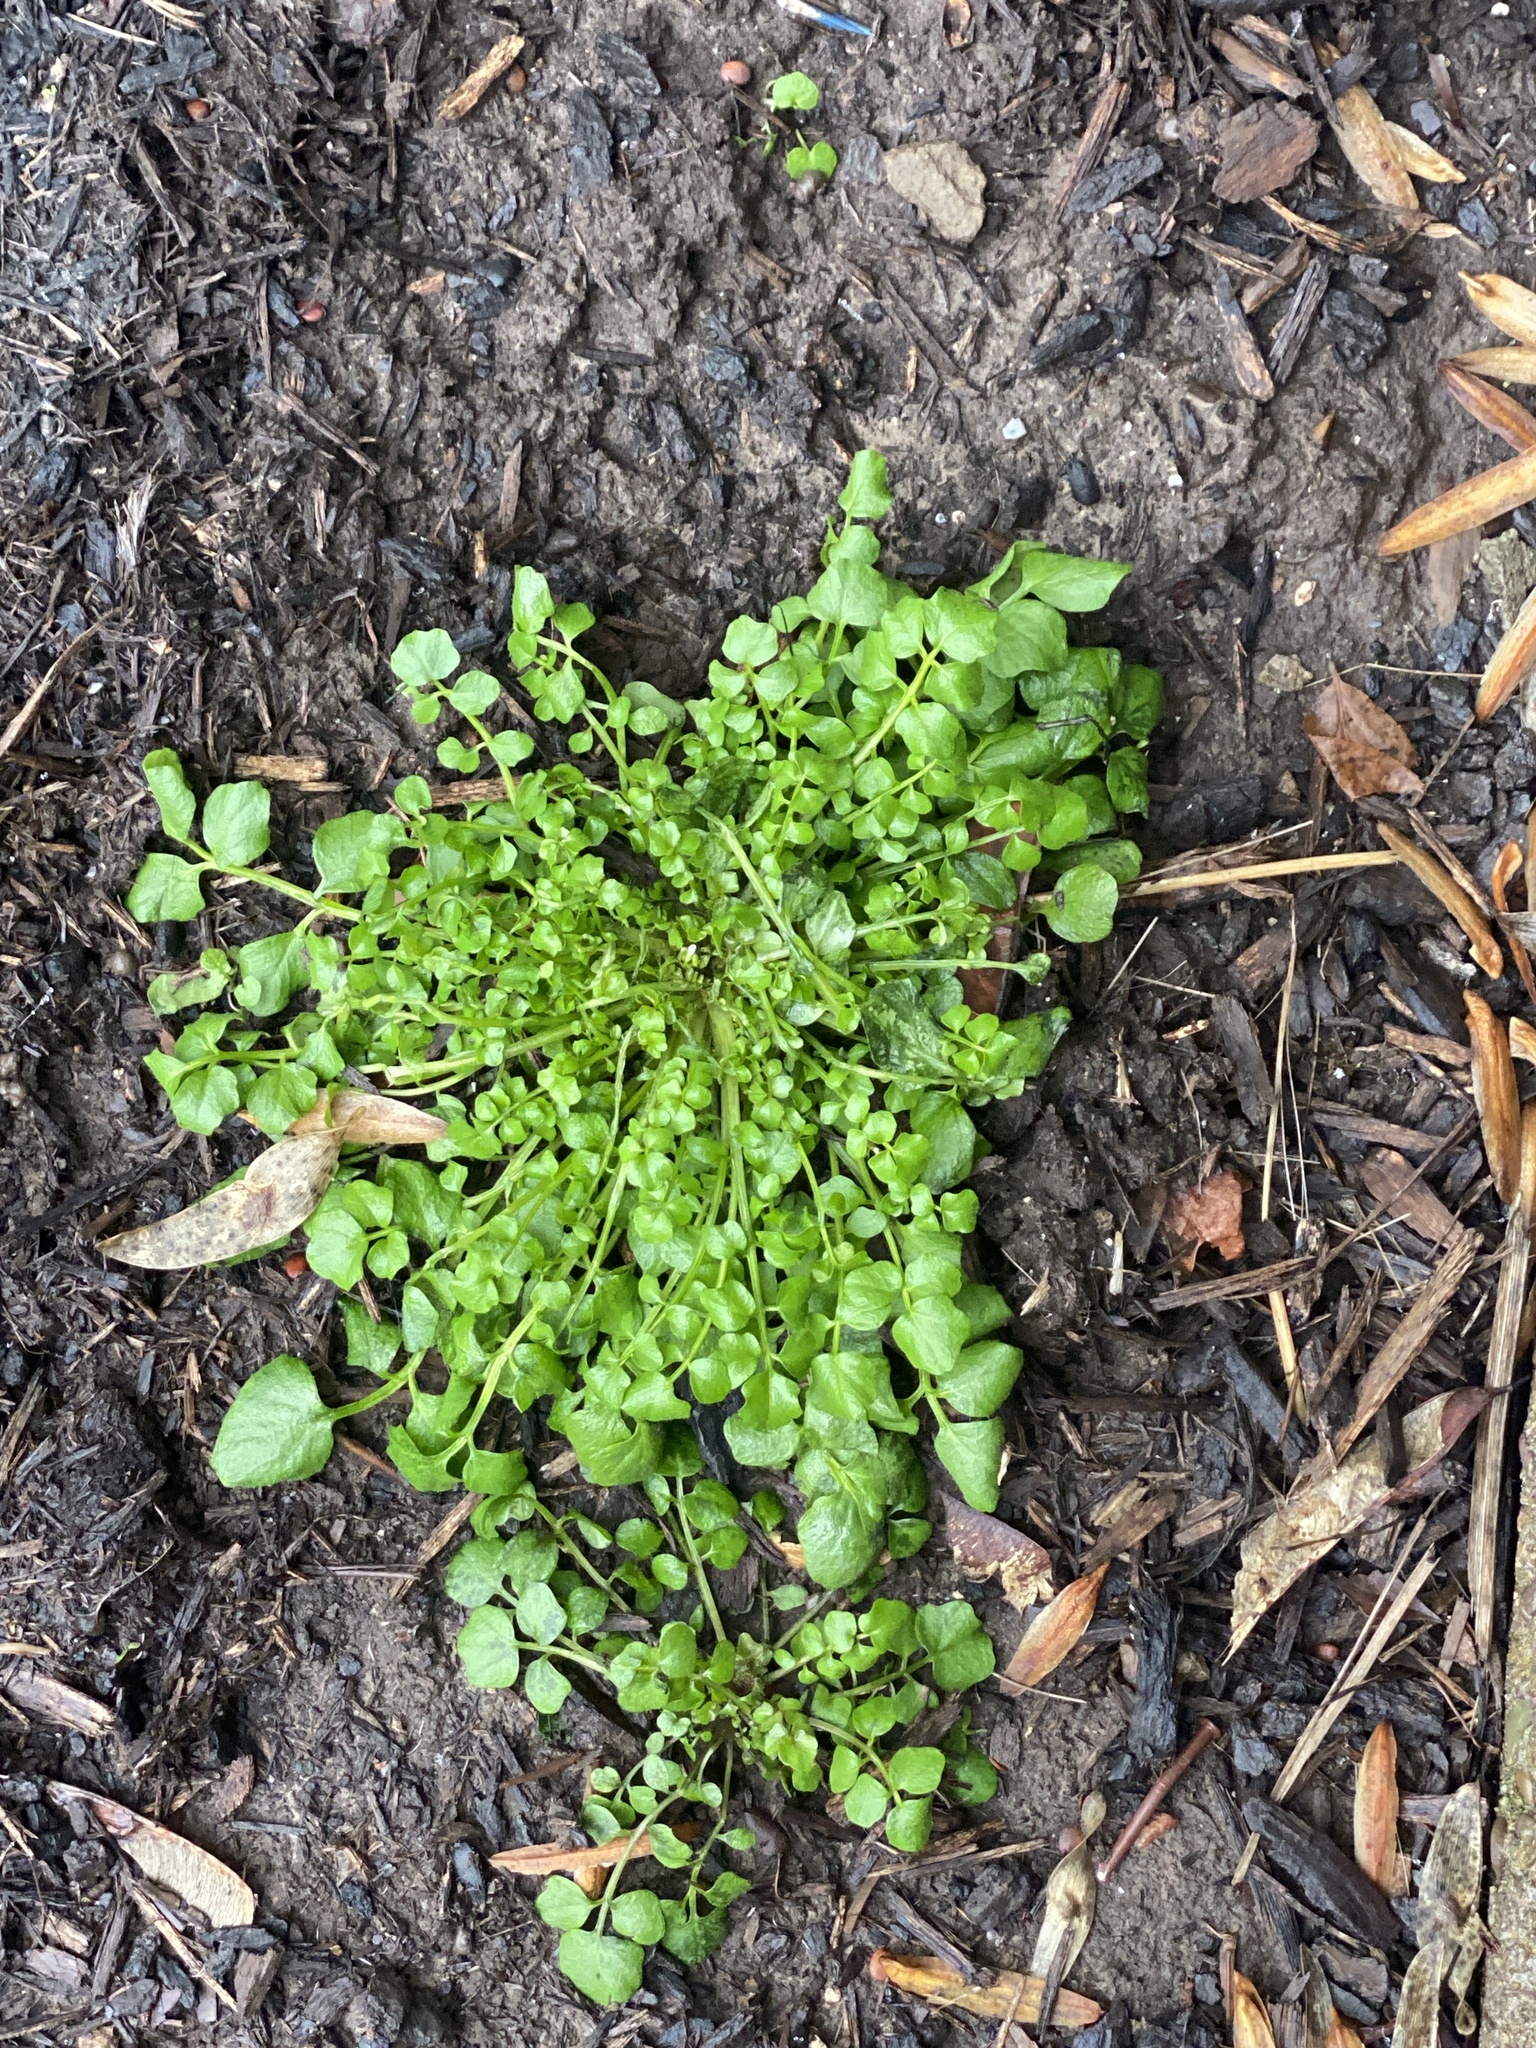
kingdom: Plantae
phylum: Tracheophyta
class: Magnoliopsida
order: Brassicales
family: Brassicaceae
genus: Cardamine
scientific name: Cardamine hirsuta
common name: Hairy bittercress
